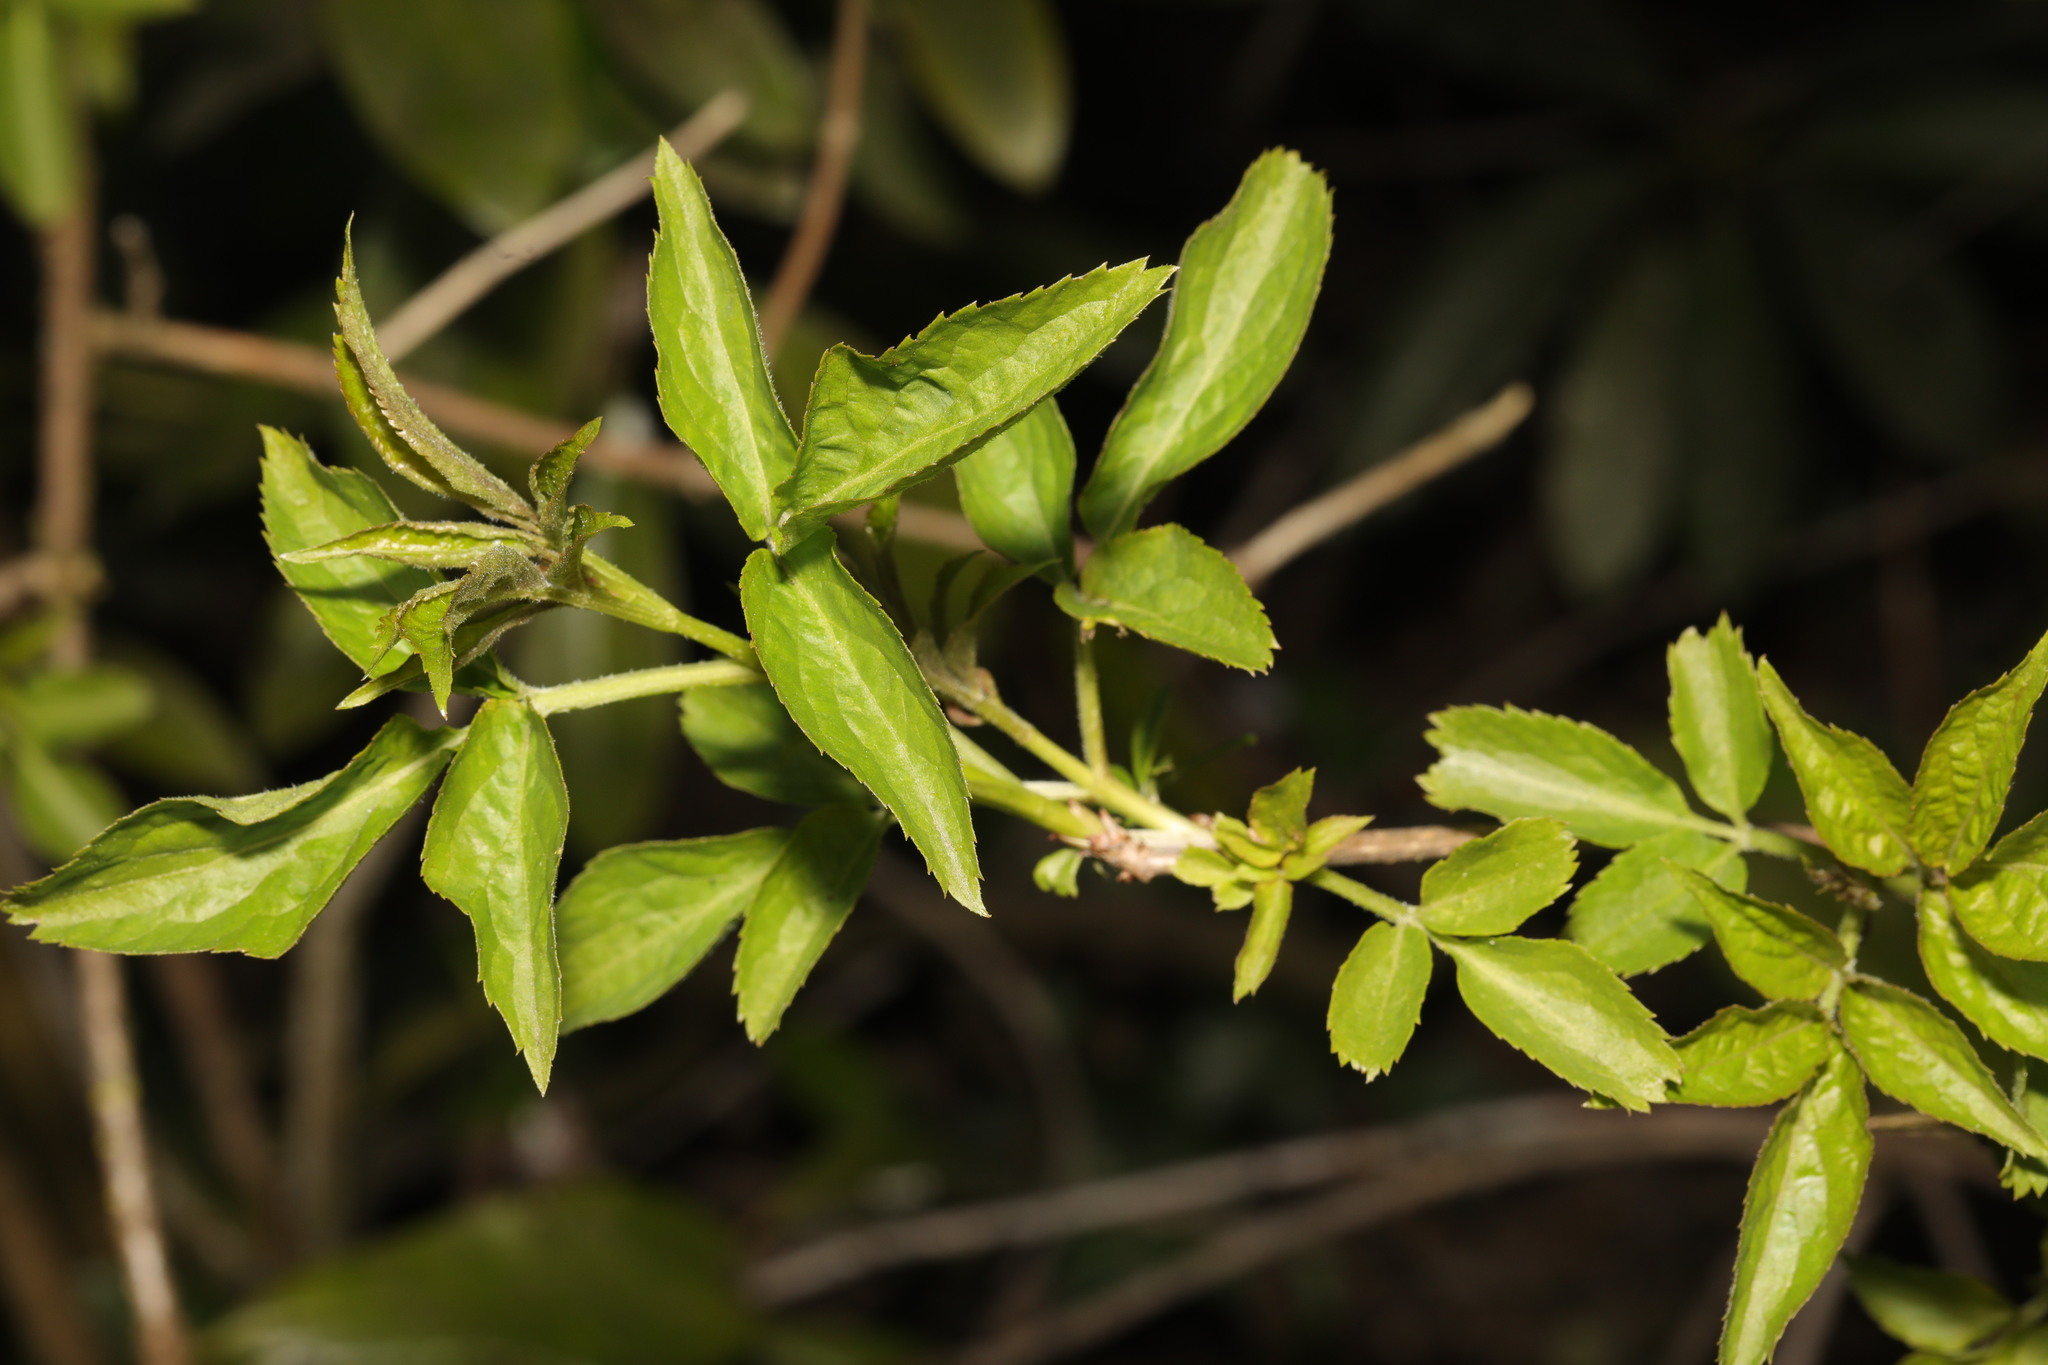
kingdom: Plantae
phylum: Tracheophyta
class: Magnoliopsida
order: Dipsacales
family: Viburnaceae
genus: Sambucus
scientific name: Sambucus nigra
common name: Elder
